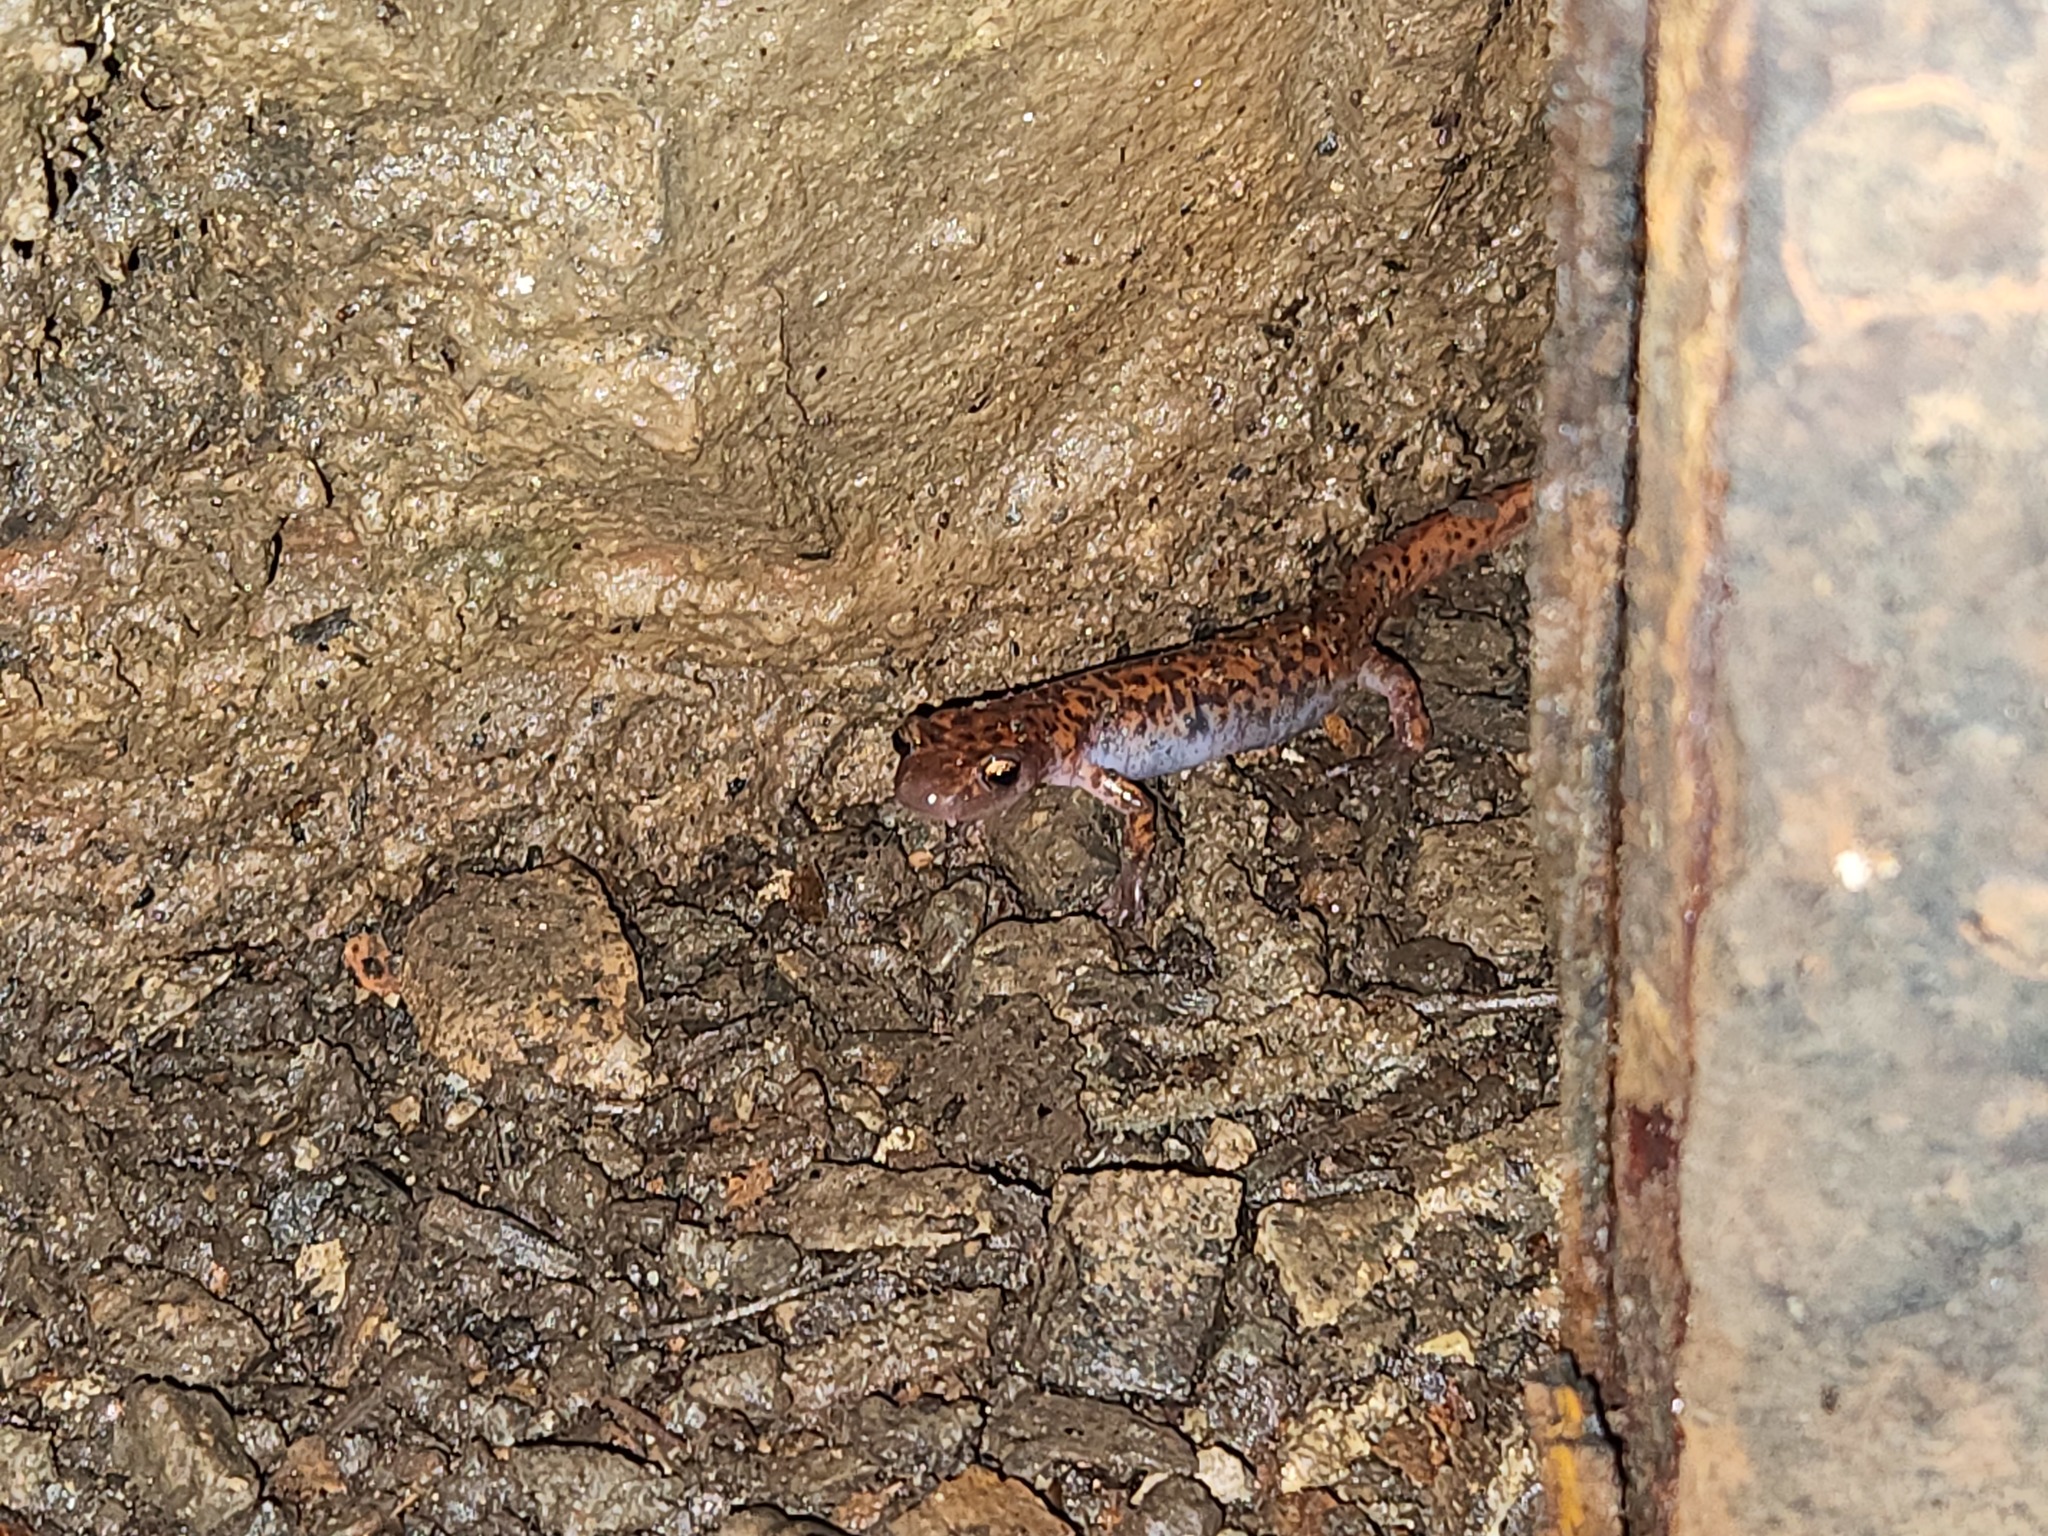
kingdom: Animalia
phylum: Chordata
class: Amphibia
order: Caudata
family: Plethodontidae
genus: Eurycea
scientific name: Eurycea lucifuga
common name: Cave salamander
